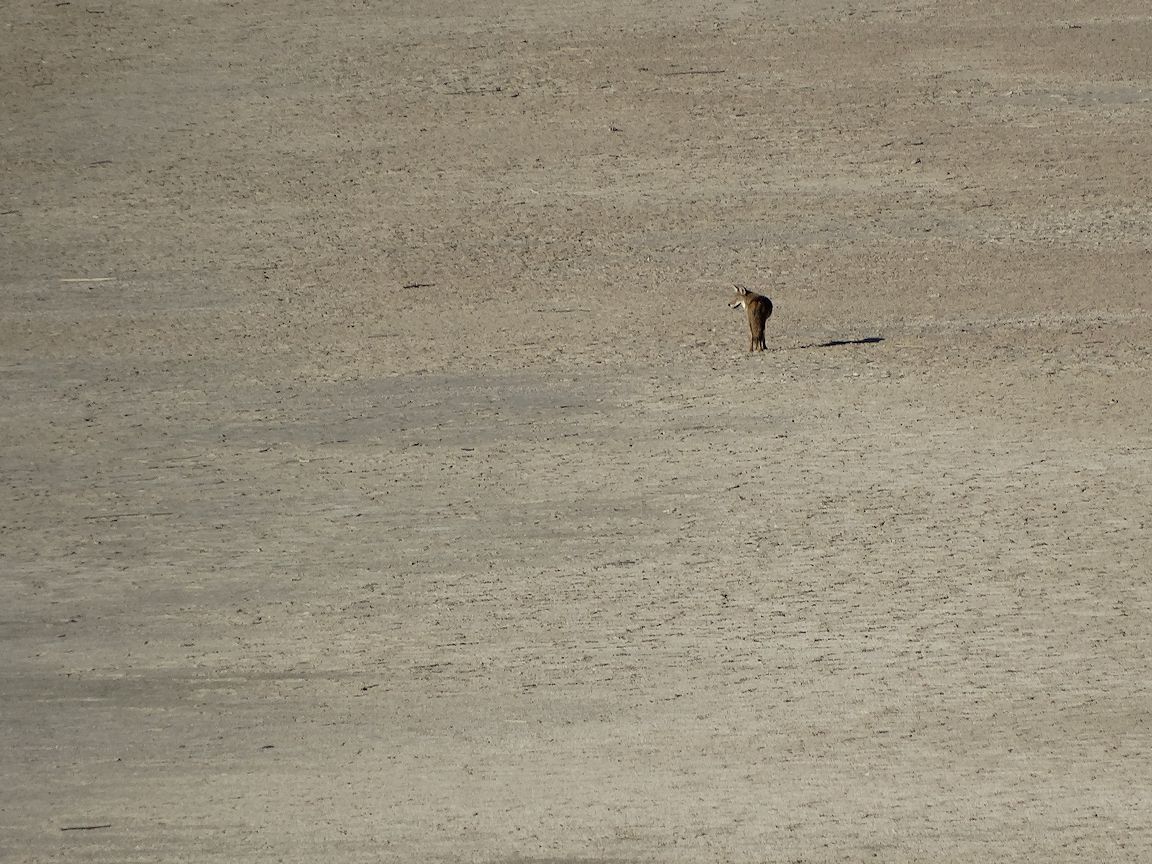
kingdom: Animalia
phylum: Chordata
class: Mammalia
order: Carnivora
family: Canidae
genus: Canis
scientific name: Canis latrans
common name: Coyote
